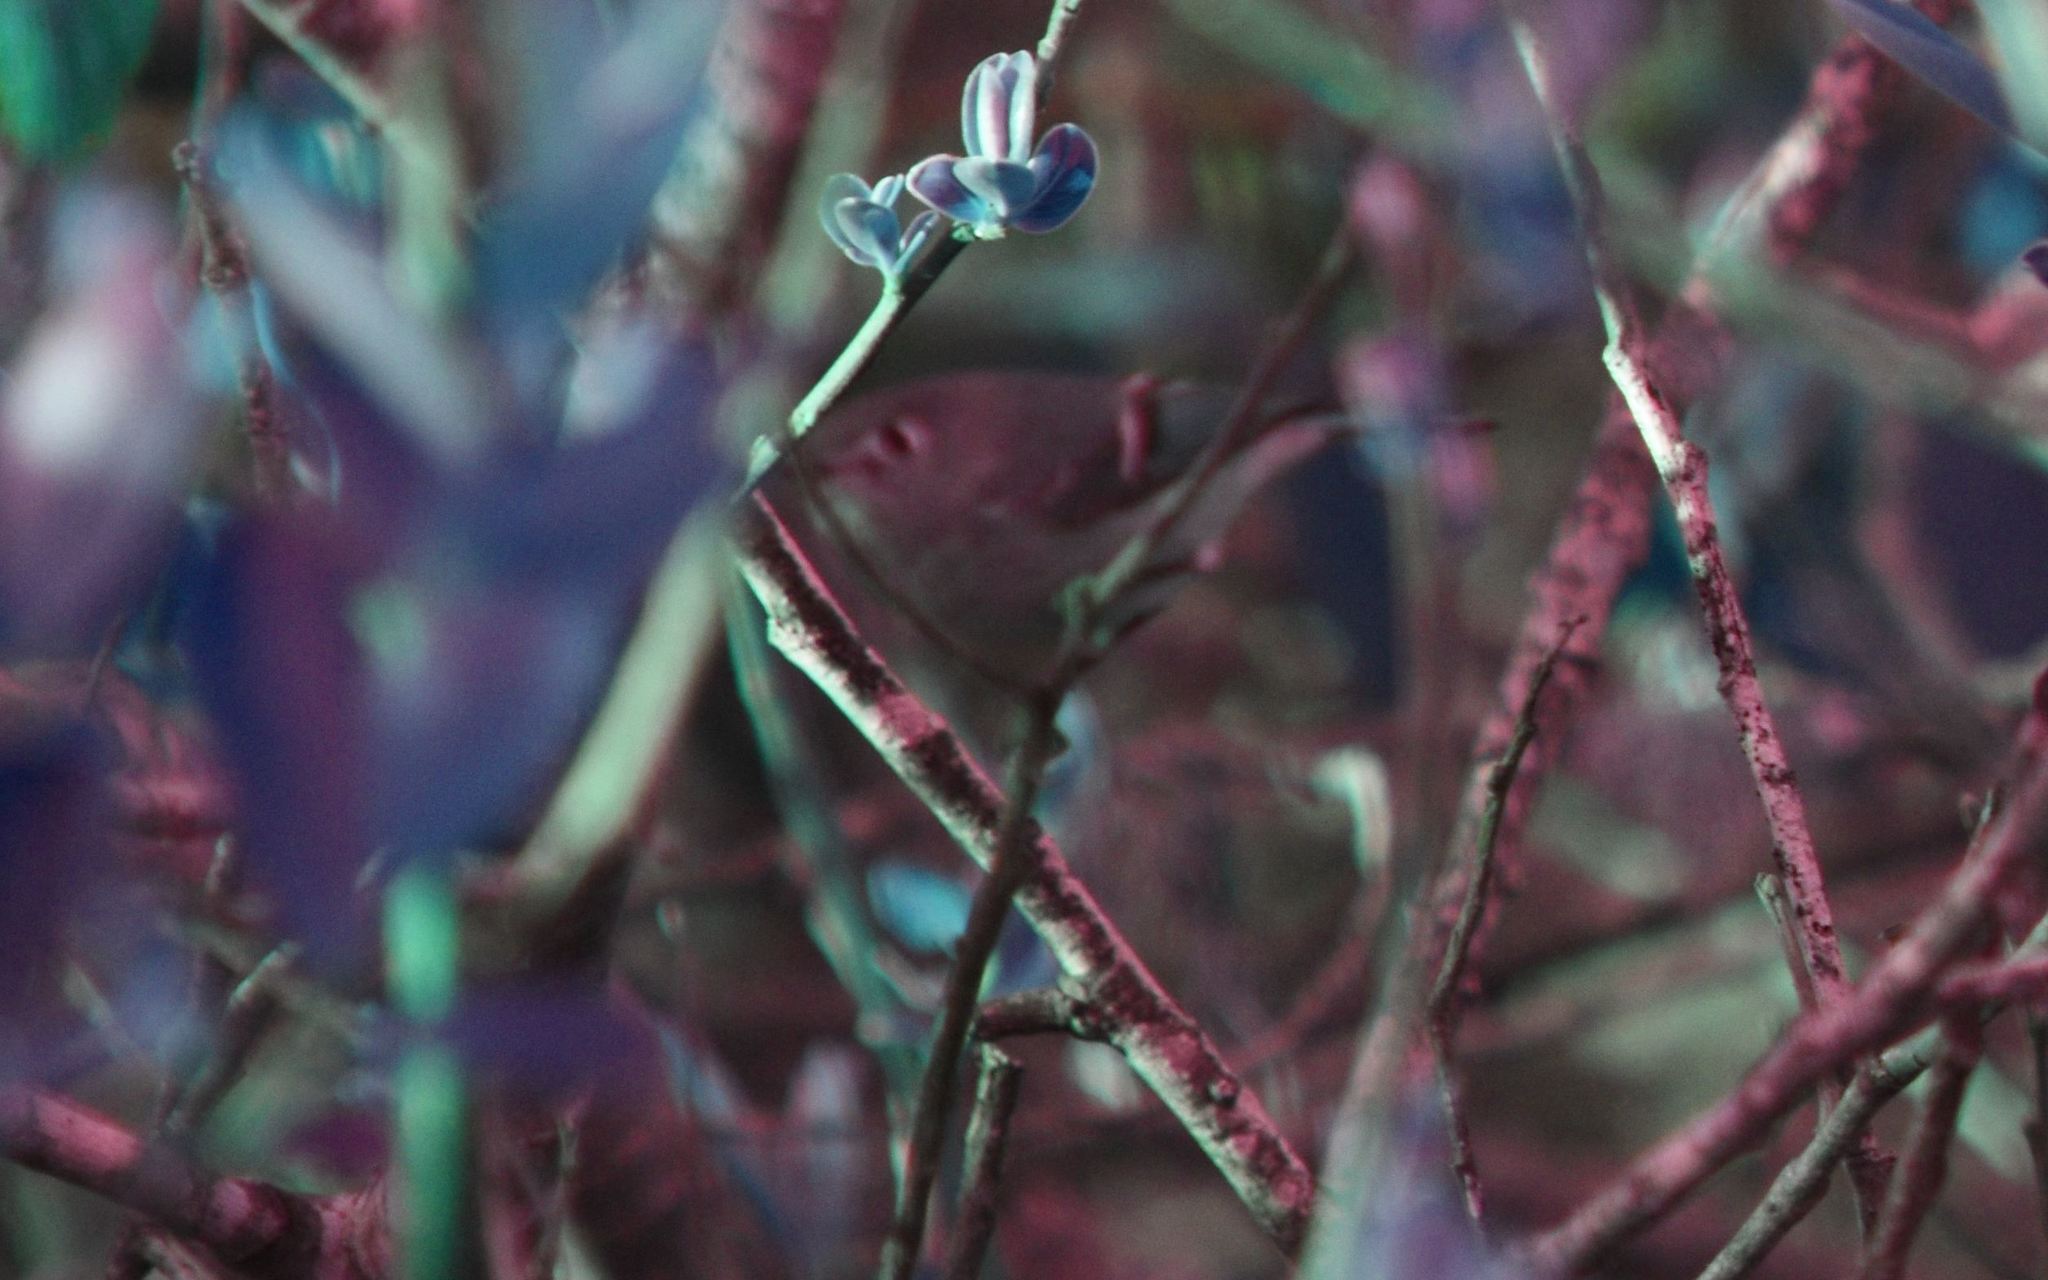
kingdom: Animalia
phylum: Chordata
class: Aves
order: Passeriformes
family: Regulidae
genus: Regulus
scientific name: Regulus calendula
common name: Ruby-crowned kinglet
